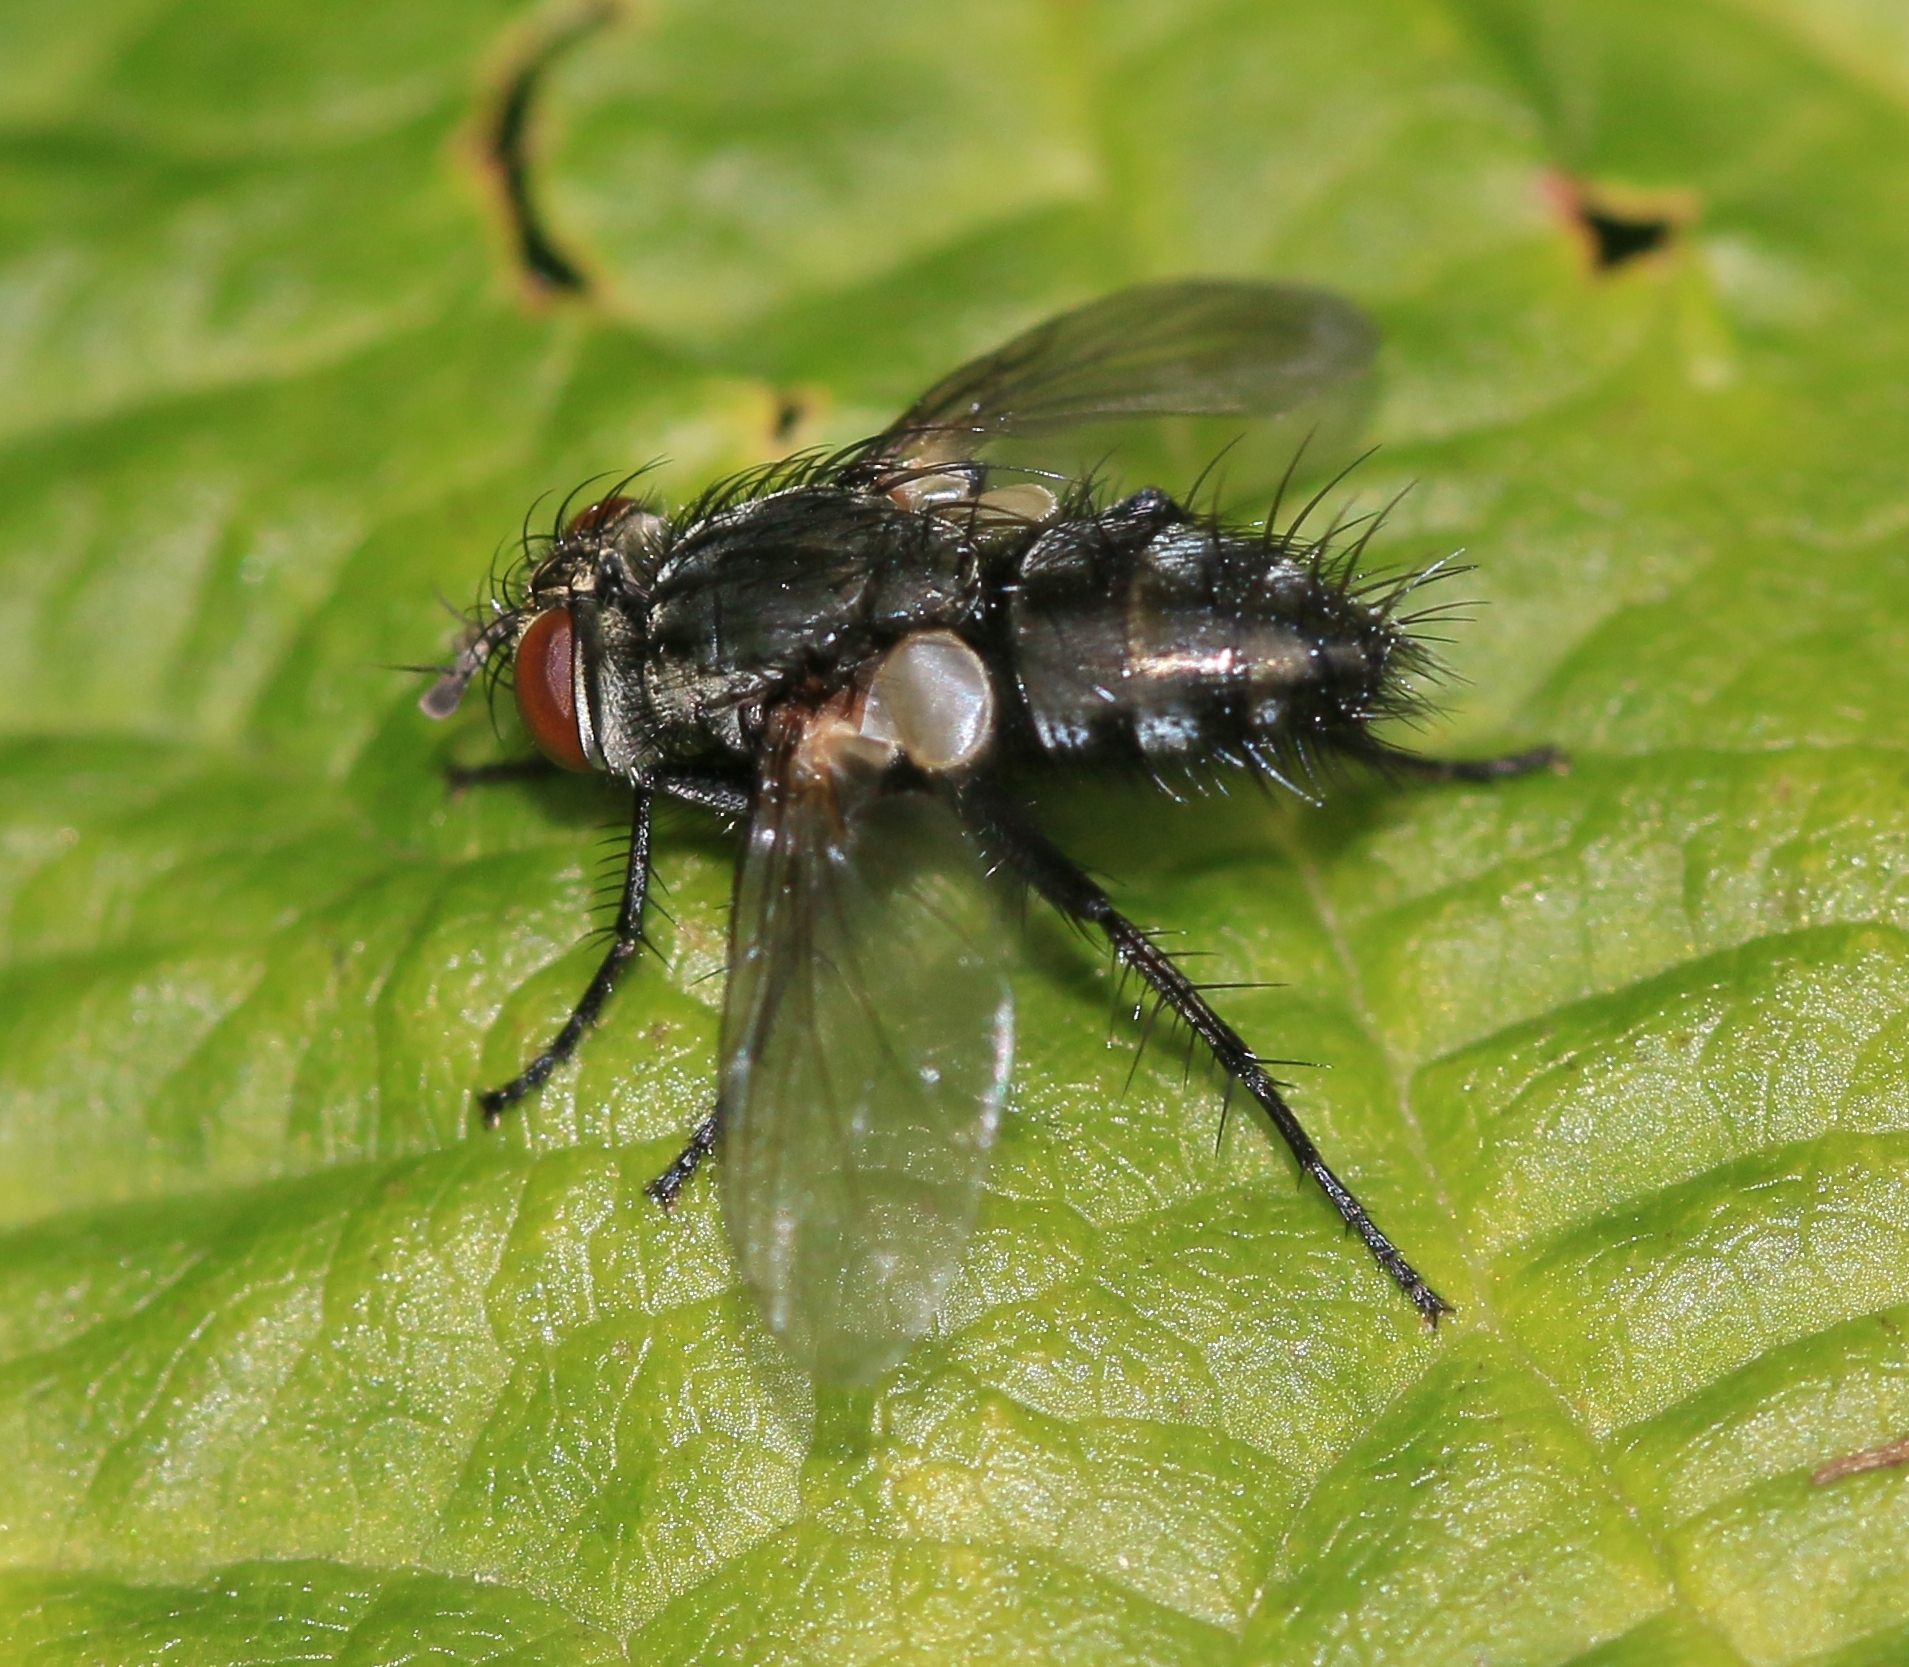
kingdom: Animalia
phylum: Arthropoda
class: Insecta
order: Diptera
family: Tachinidae
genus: Voria
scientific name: Voria ruralis
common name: Parasitic fly
